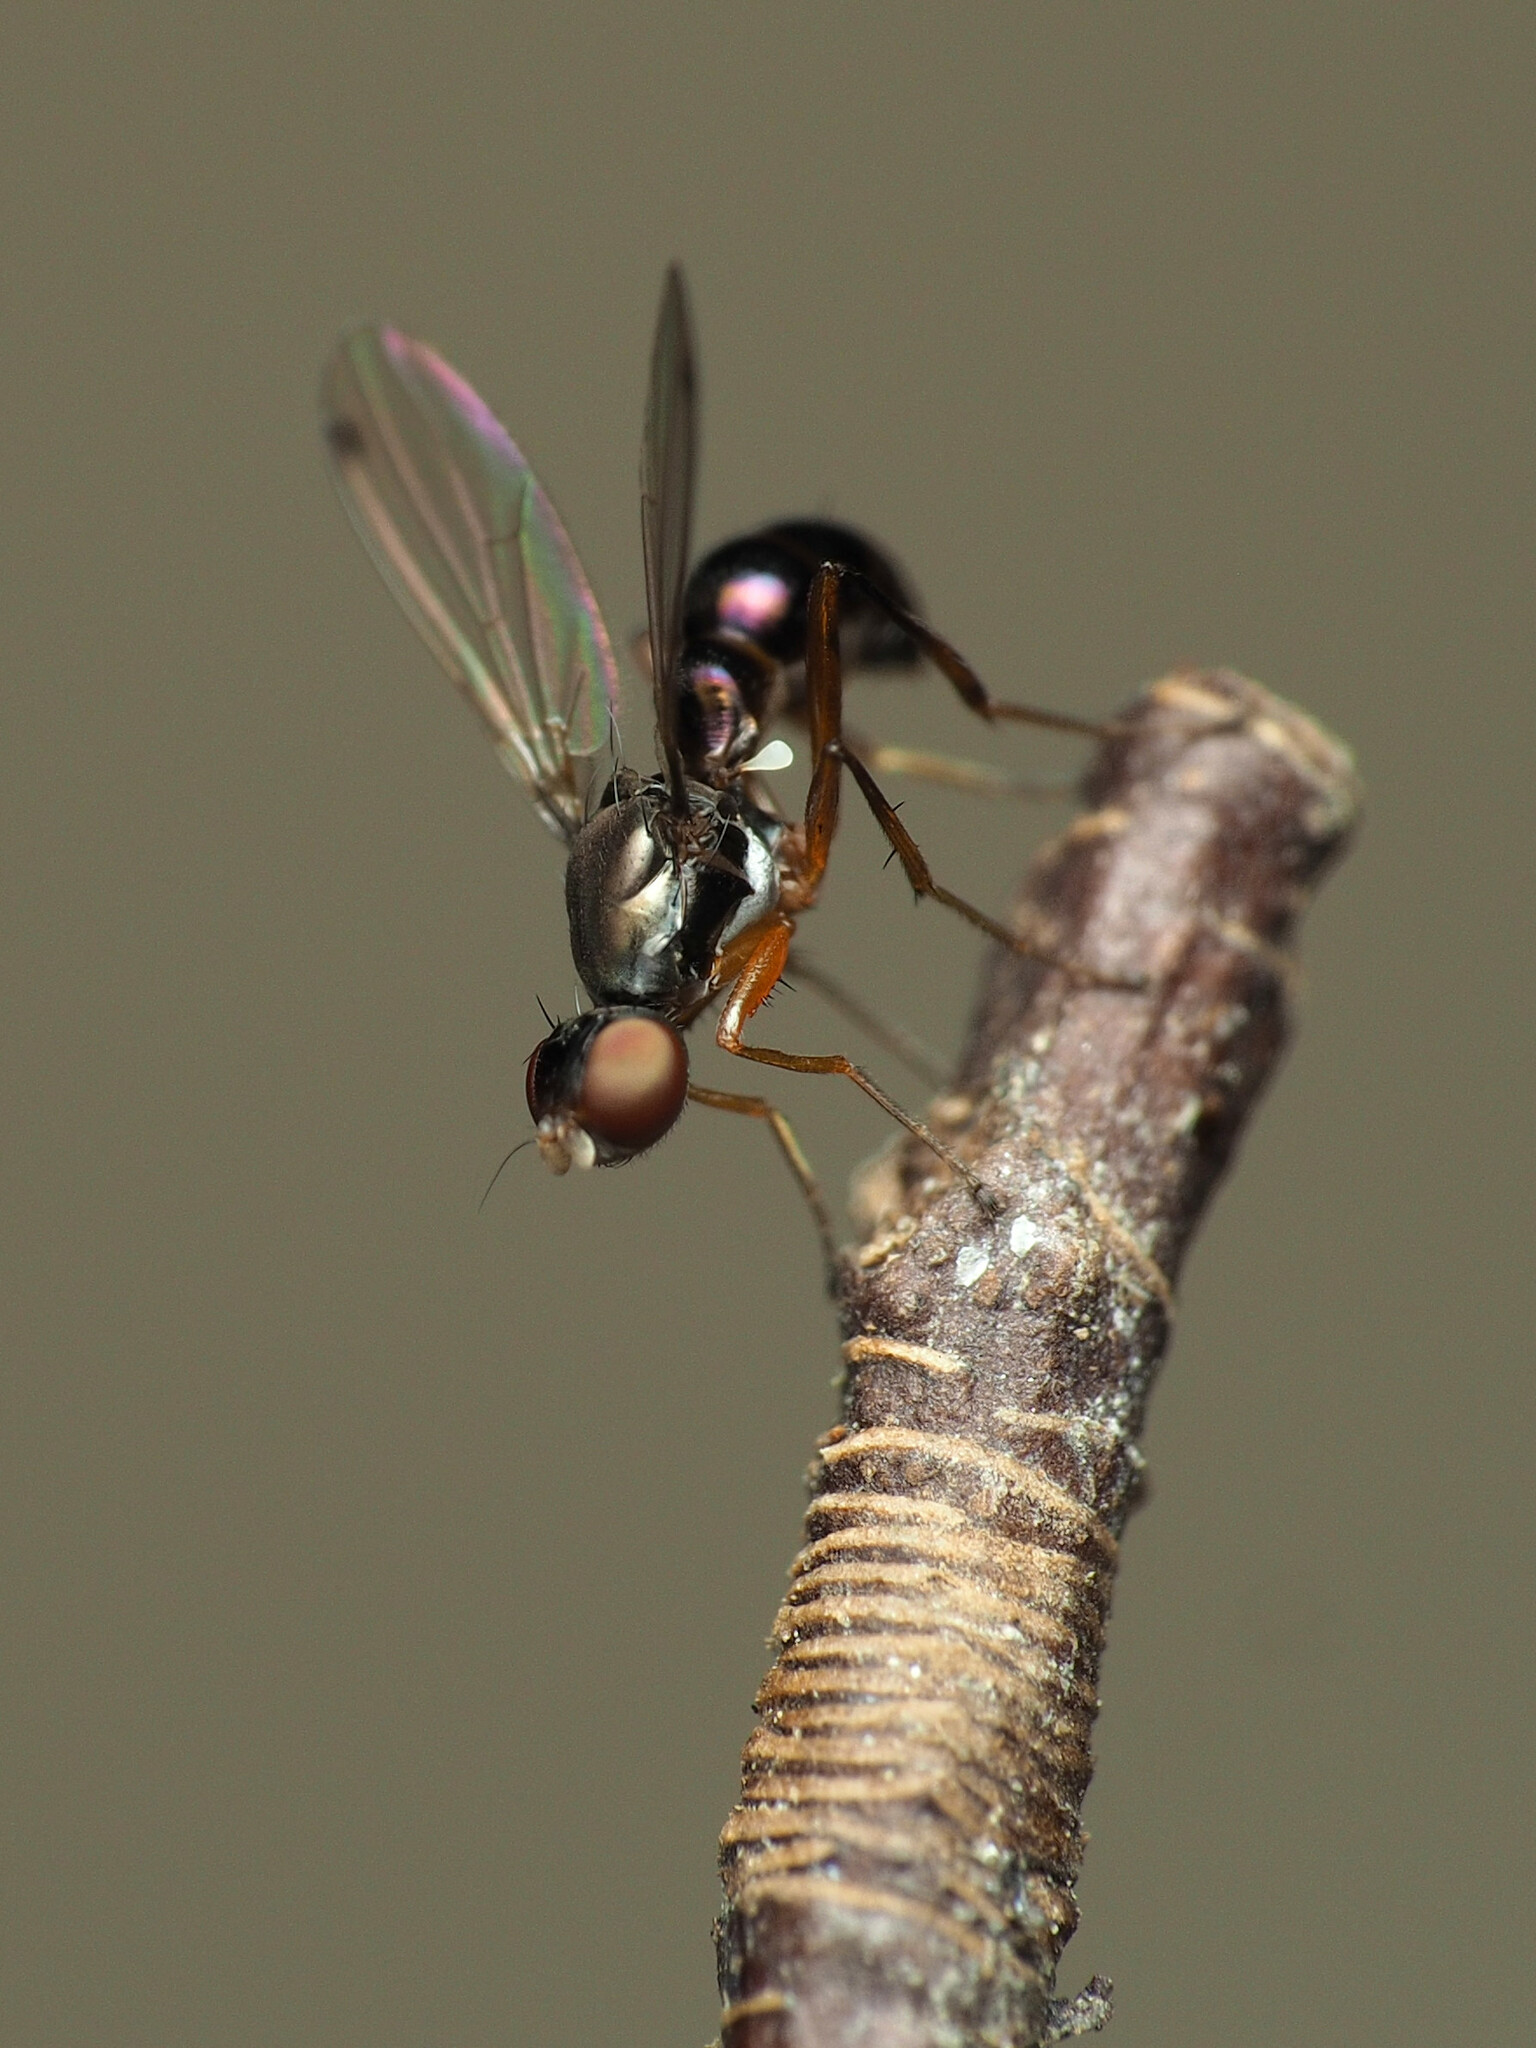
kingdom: Animalia
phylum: Arthropoda
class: Insecta
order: Diptera
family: Sepsidae
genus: Sepsis
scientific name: Sepsis punctum
